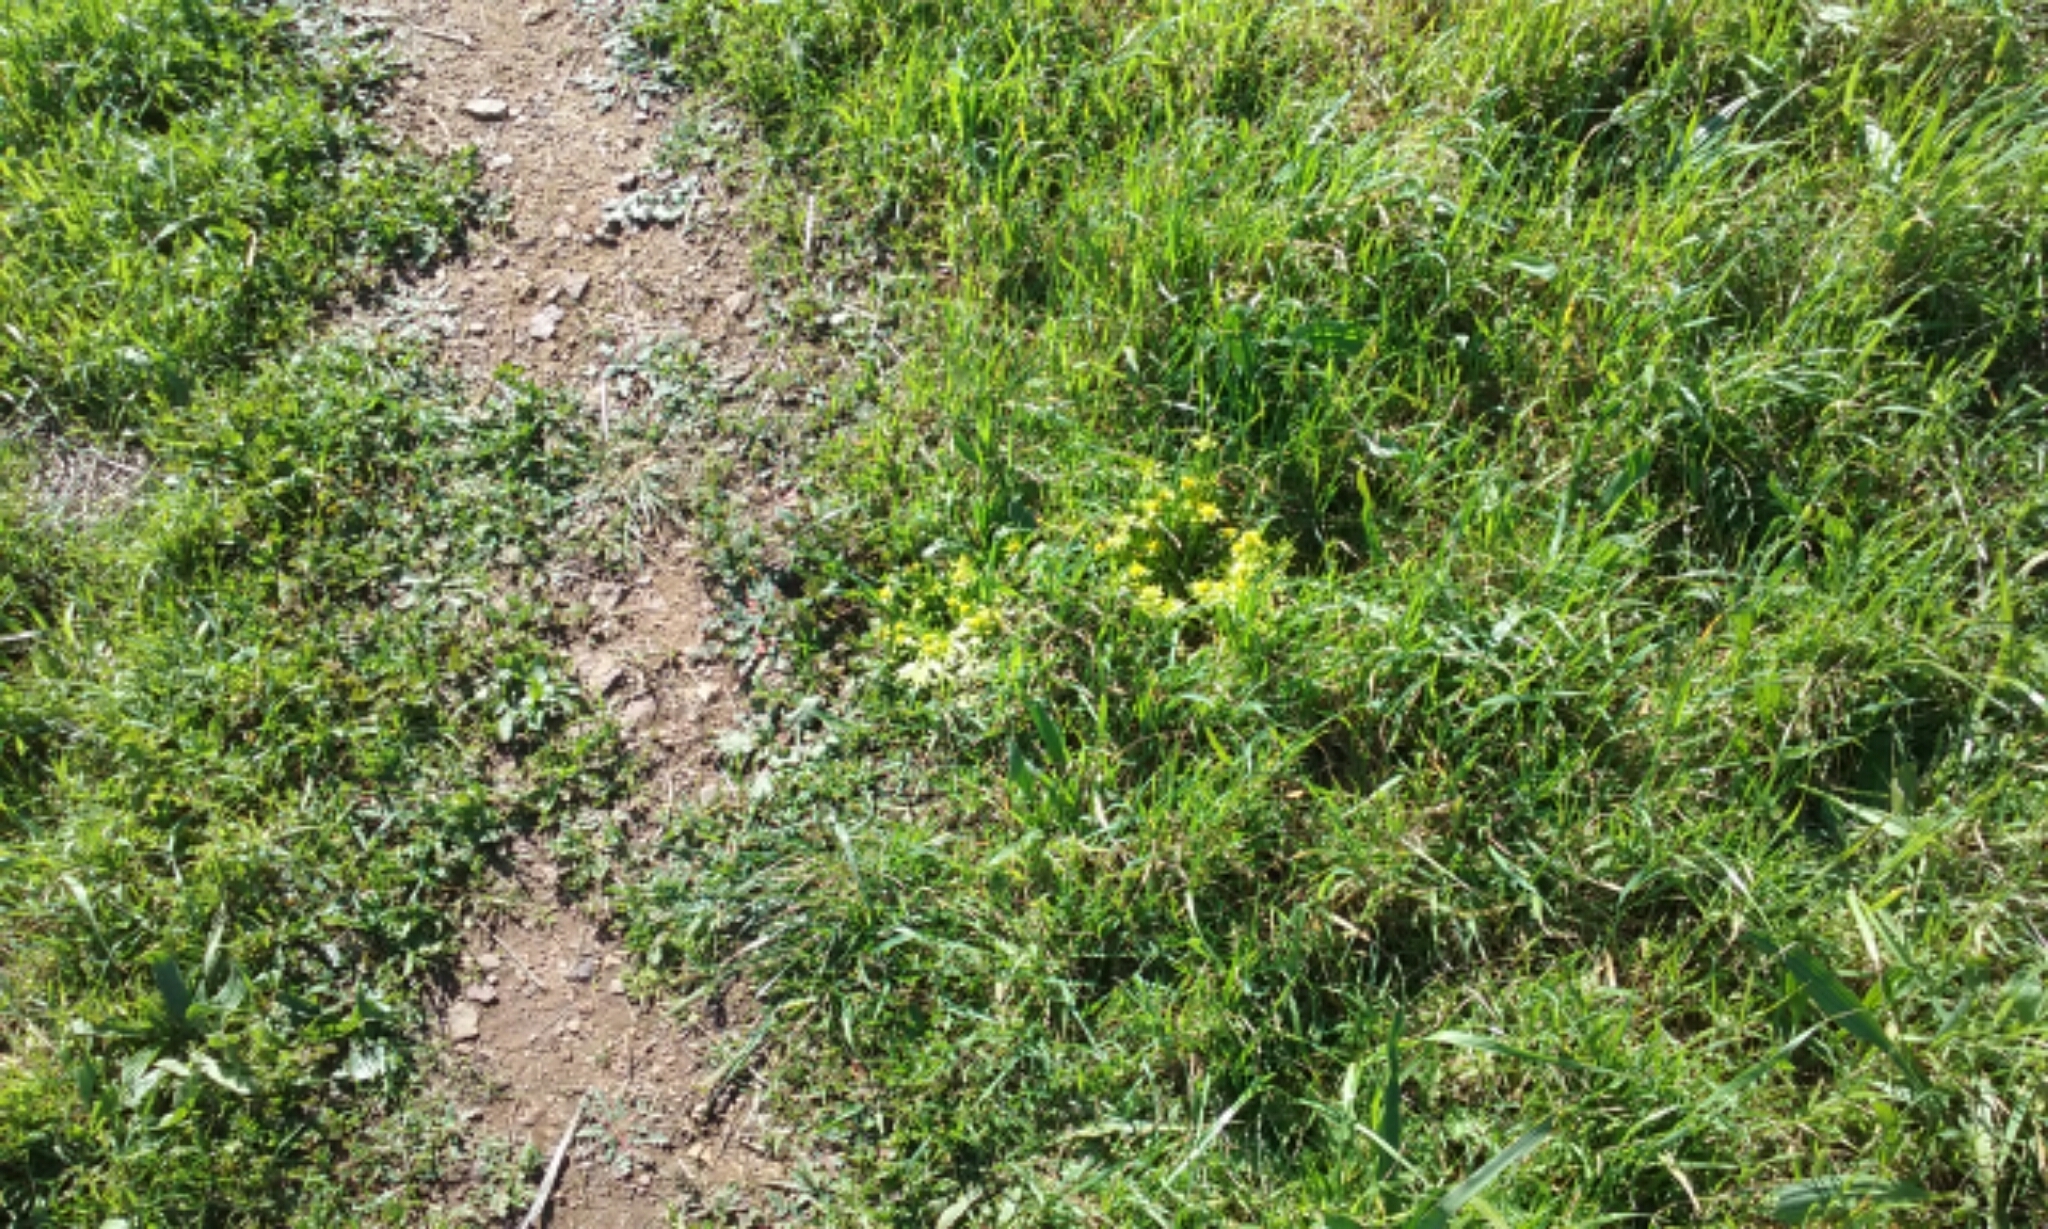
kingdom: Plantae
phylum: Tracheophyta
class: Magnoliopsida
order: Apiales
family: Apiaceae
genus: Sanicula
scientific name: Sanicula arctopoides
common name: Footsteps-of-spring
